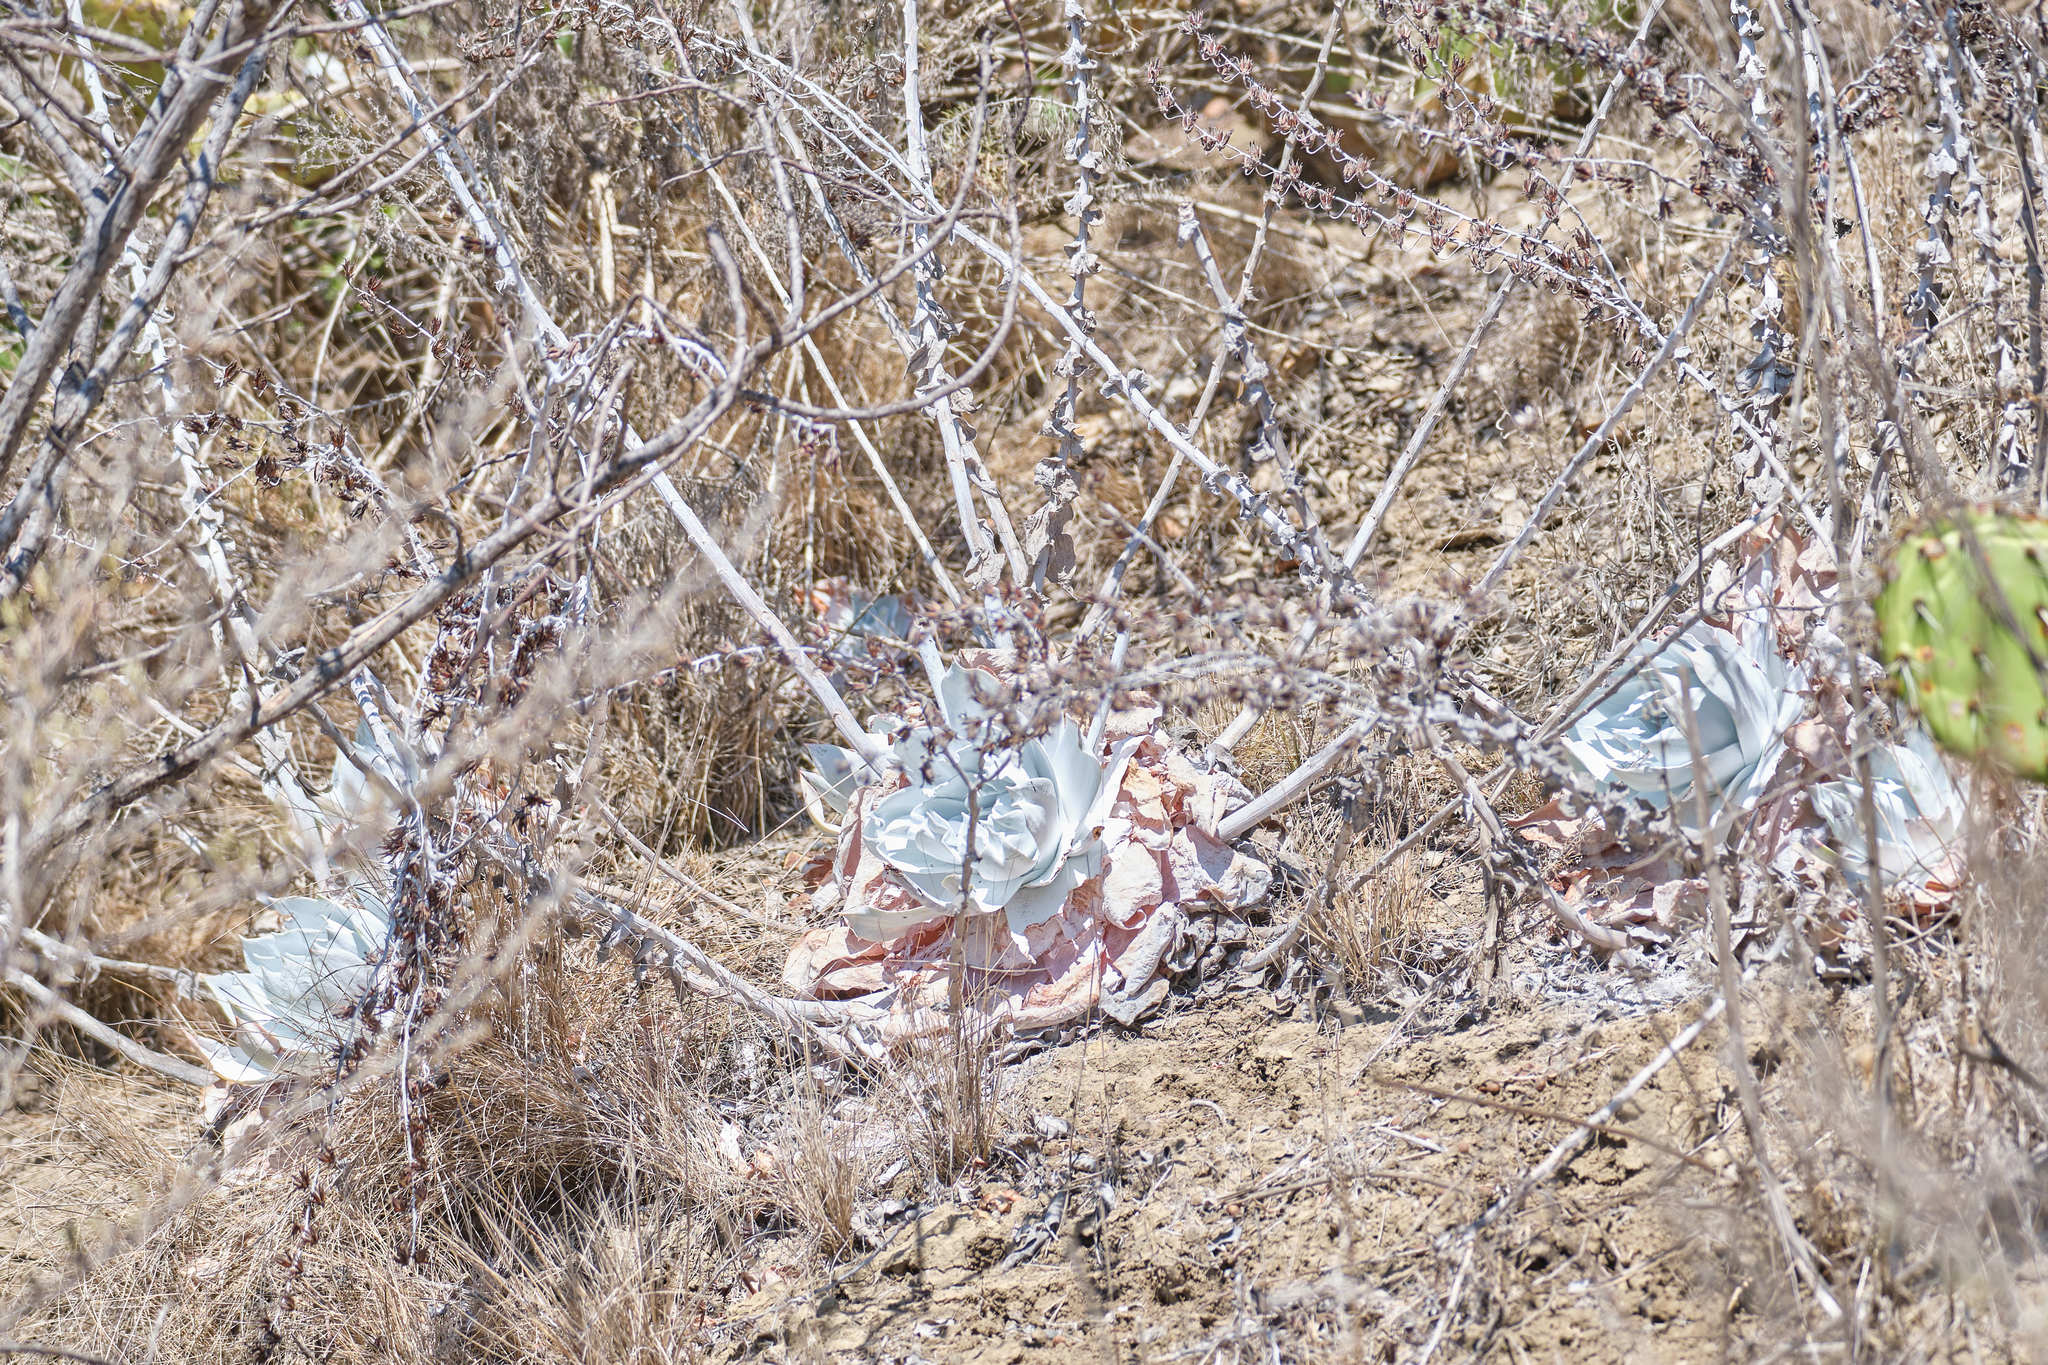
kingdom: Plantae
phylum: Tracheophyta
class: Magnoliopsida
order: Saxifragales
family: Crassulaceae
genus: Dudleya
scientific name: Dudleya pulverulenta
